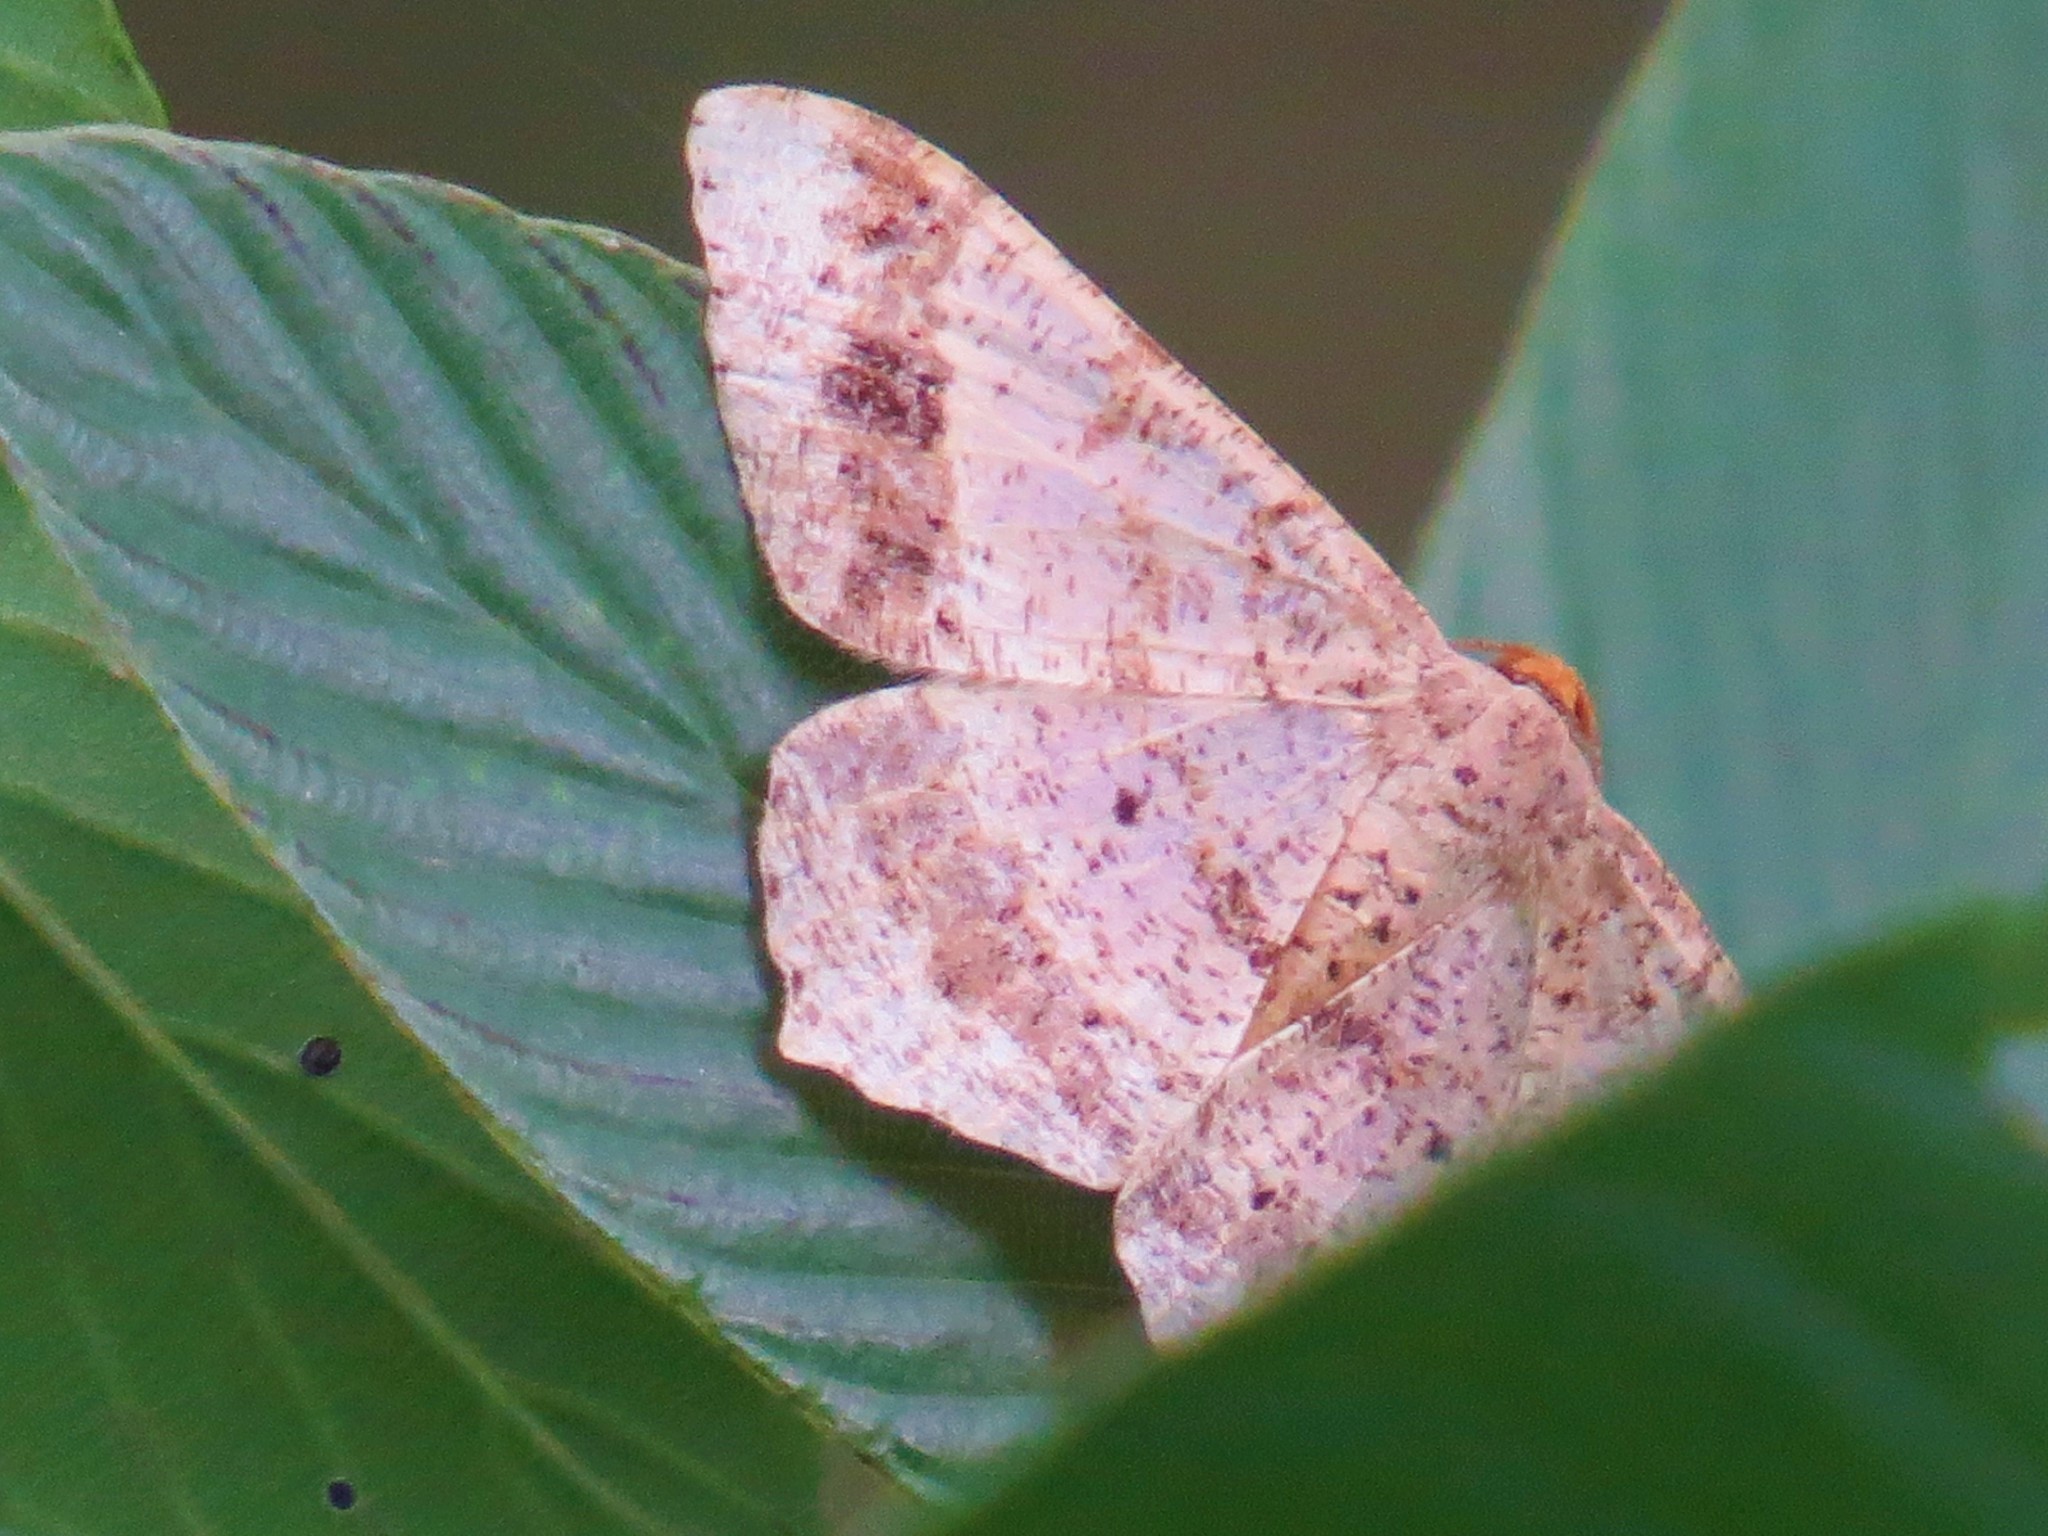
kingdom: Animalia
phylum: Arthropoda
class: Insecta
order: Lepidoptera
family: Geometridae
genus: Macaria
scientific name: Macaria abydata
